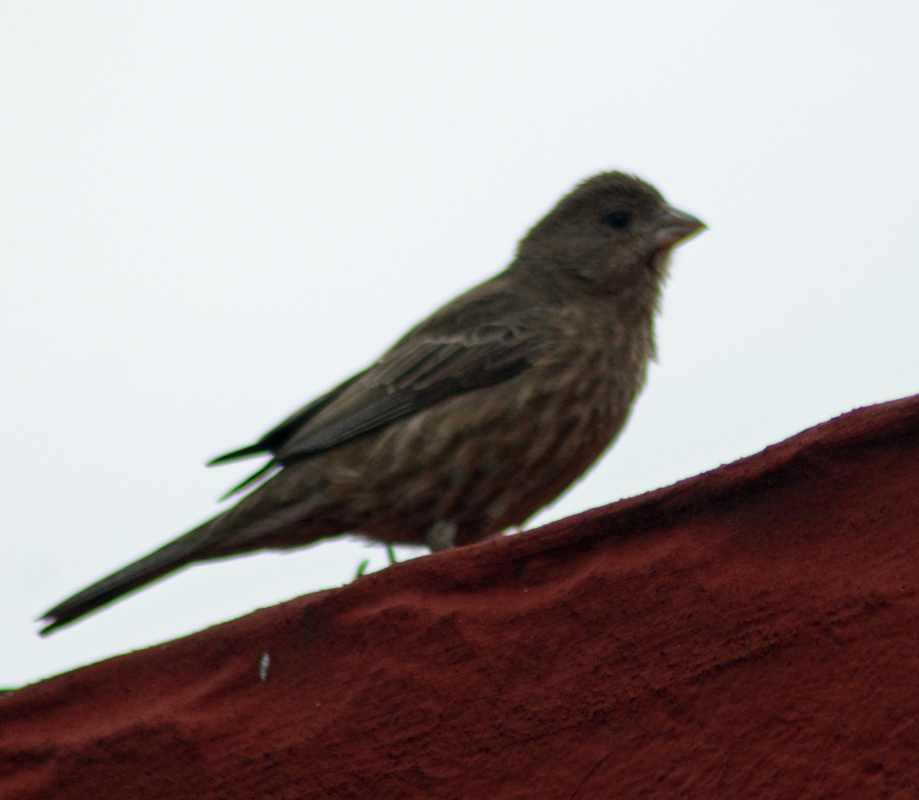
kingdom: Animalia
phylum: Chordata
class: Aves
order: Passeriformes
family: Fringillidae
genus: Haemorhous
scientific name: Haemorhous mexicanus
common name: House finch
